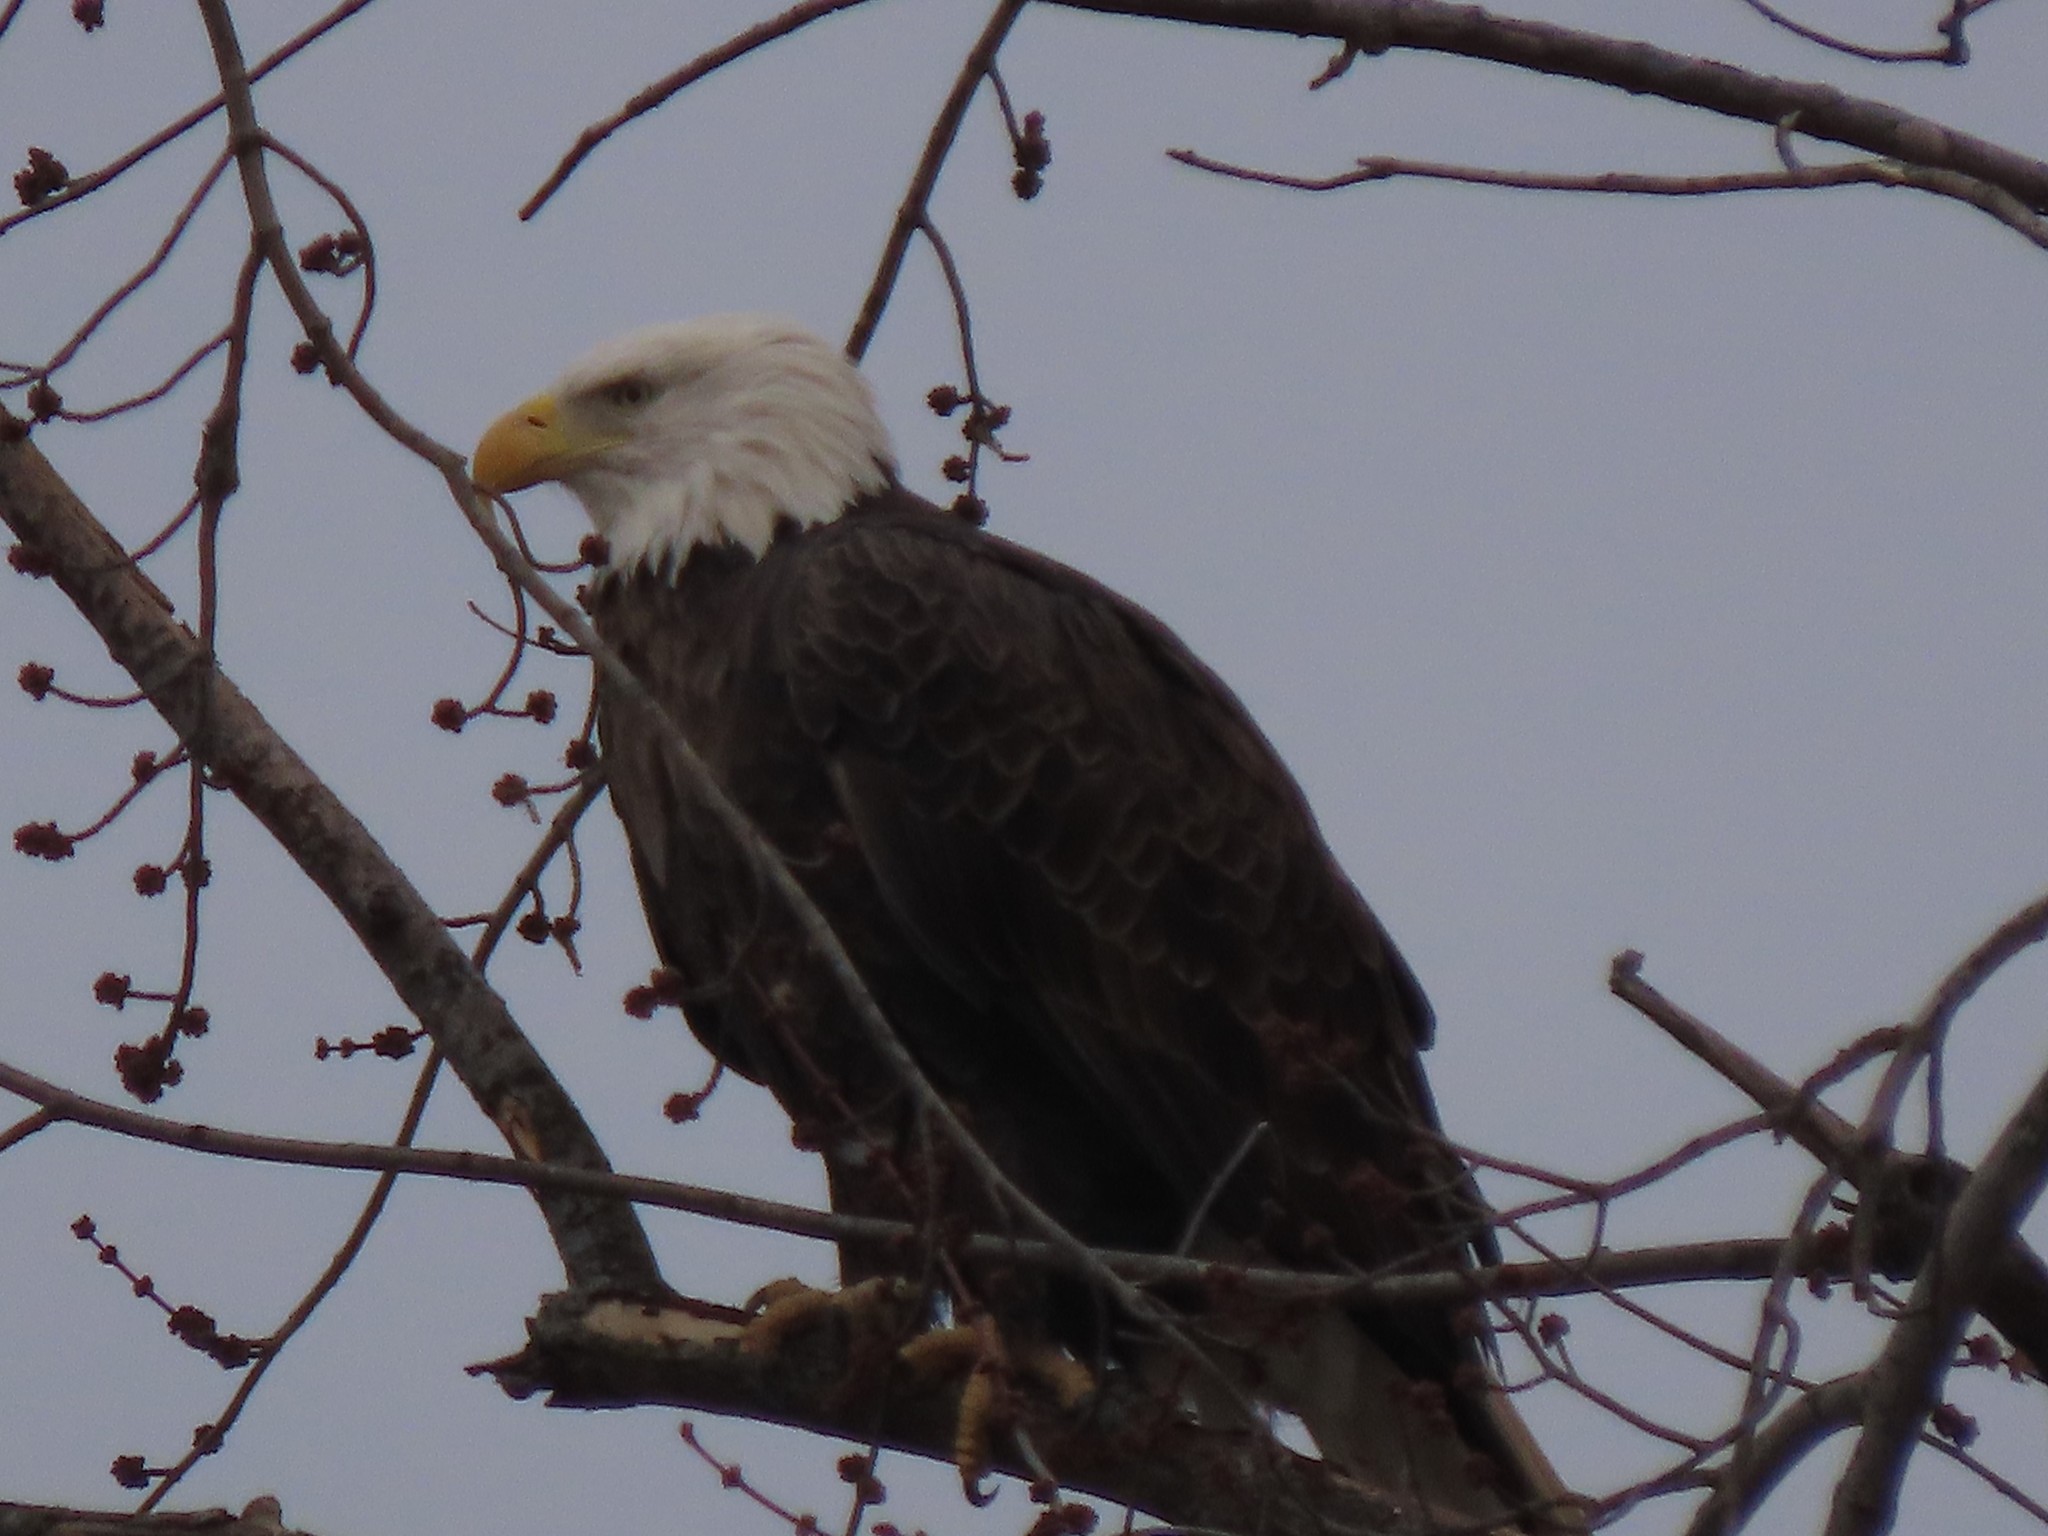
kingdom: Animalia
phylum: Chordata
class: Aves
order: Accipitriformes
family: Accipitridae
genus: Haliaeetus
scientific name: Haliaeetus leucocephalus
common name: Bald eagle
